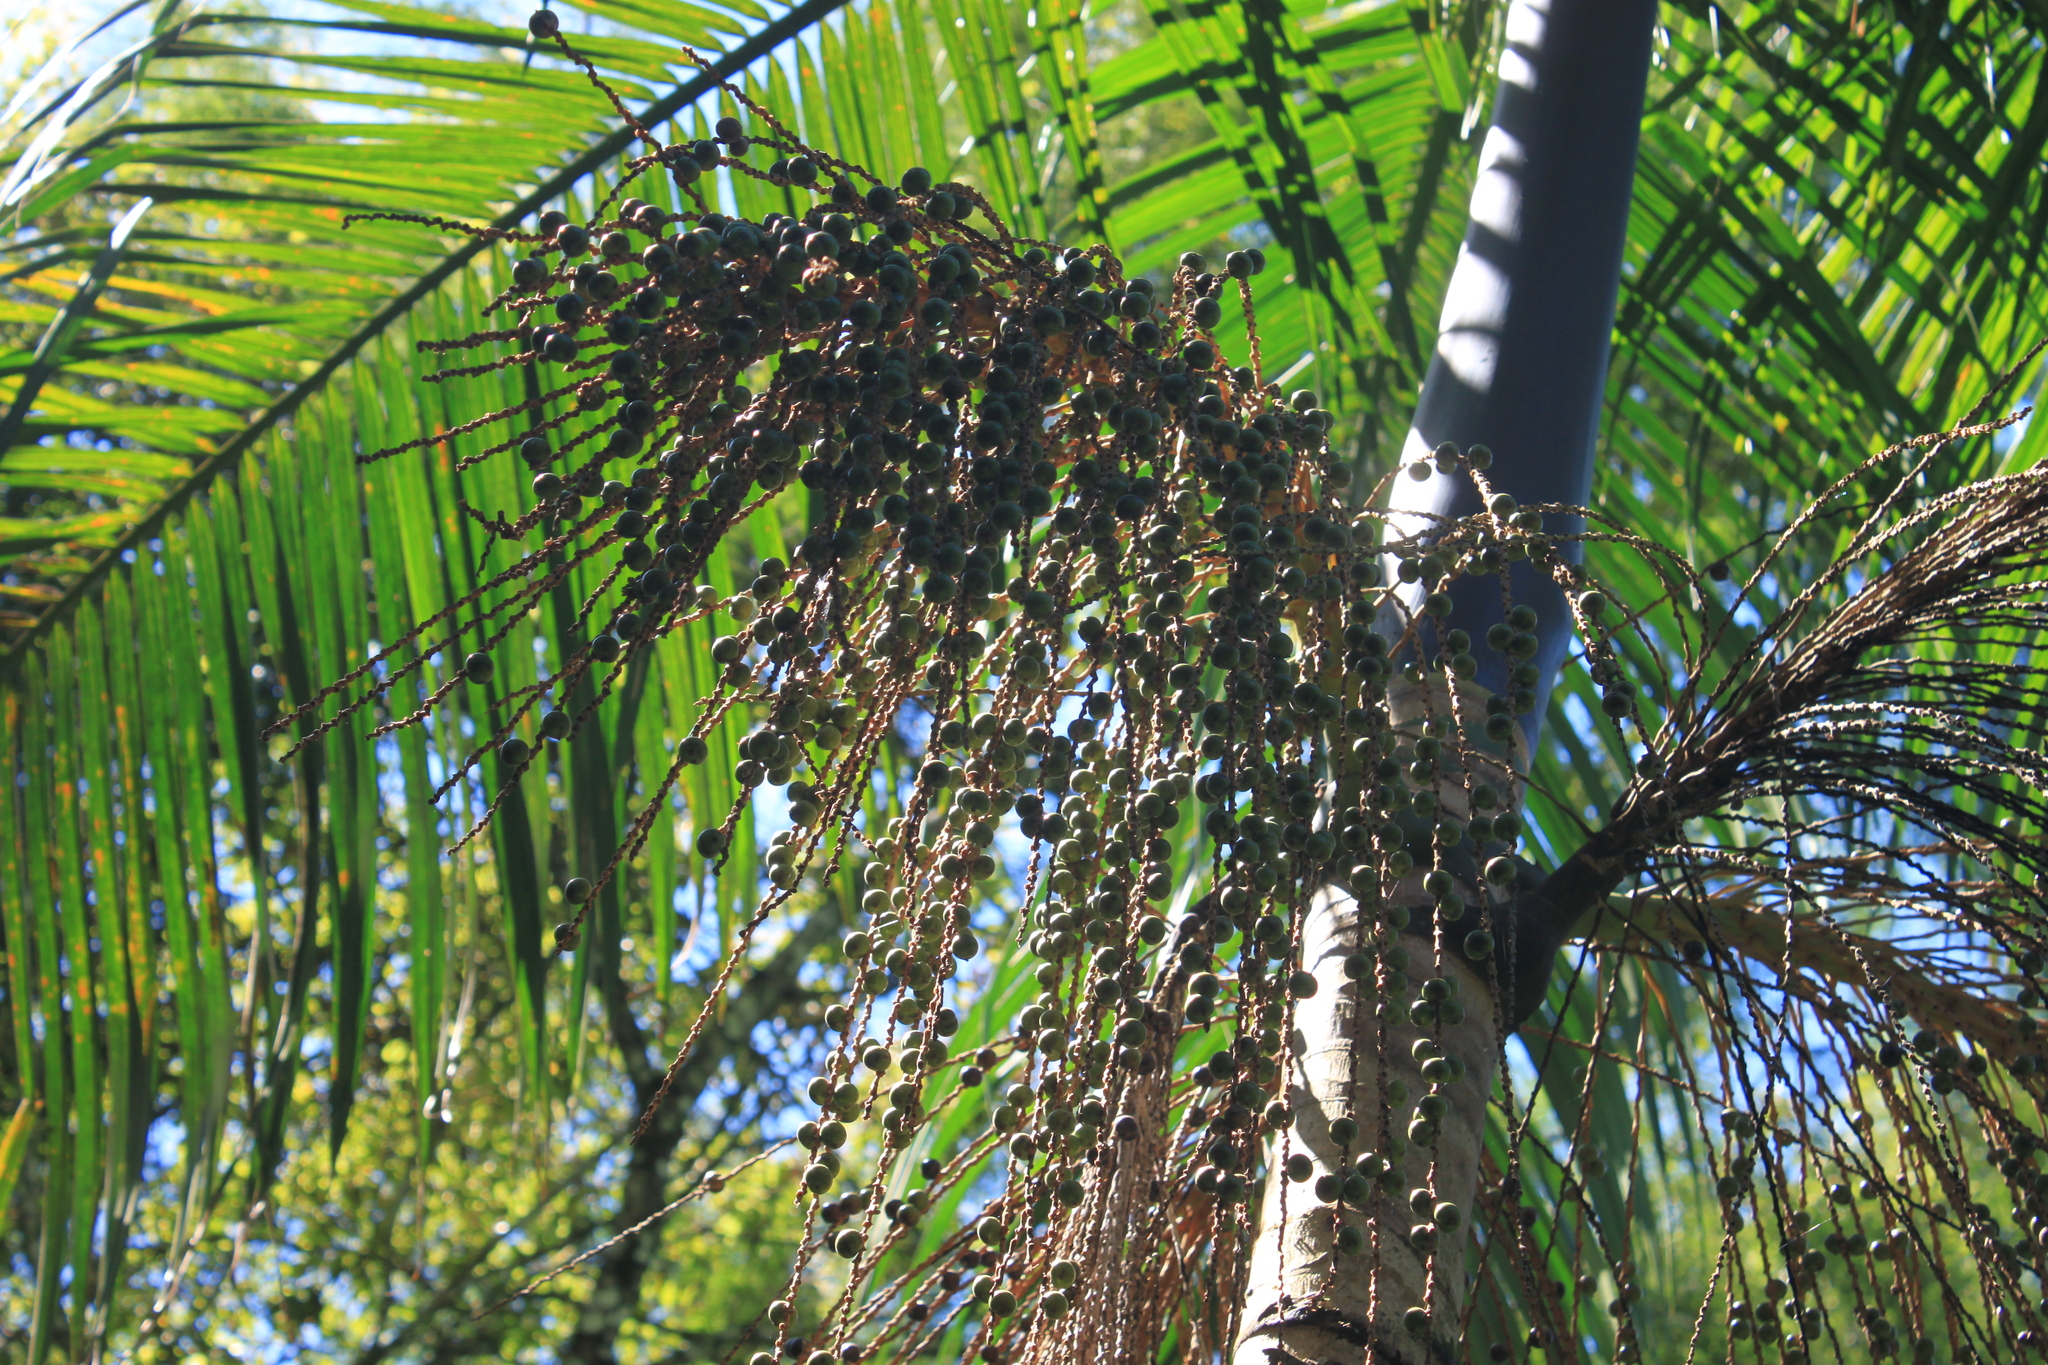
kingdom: Plantae
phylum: Tracheophyta
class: Liliopsida
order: Arecales
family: Arecaceae
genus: Euterpe
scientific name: Euterpe edulis
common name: Assai palm
